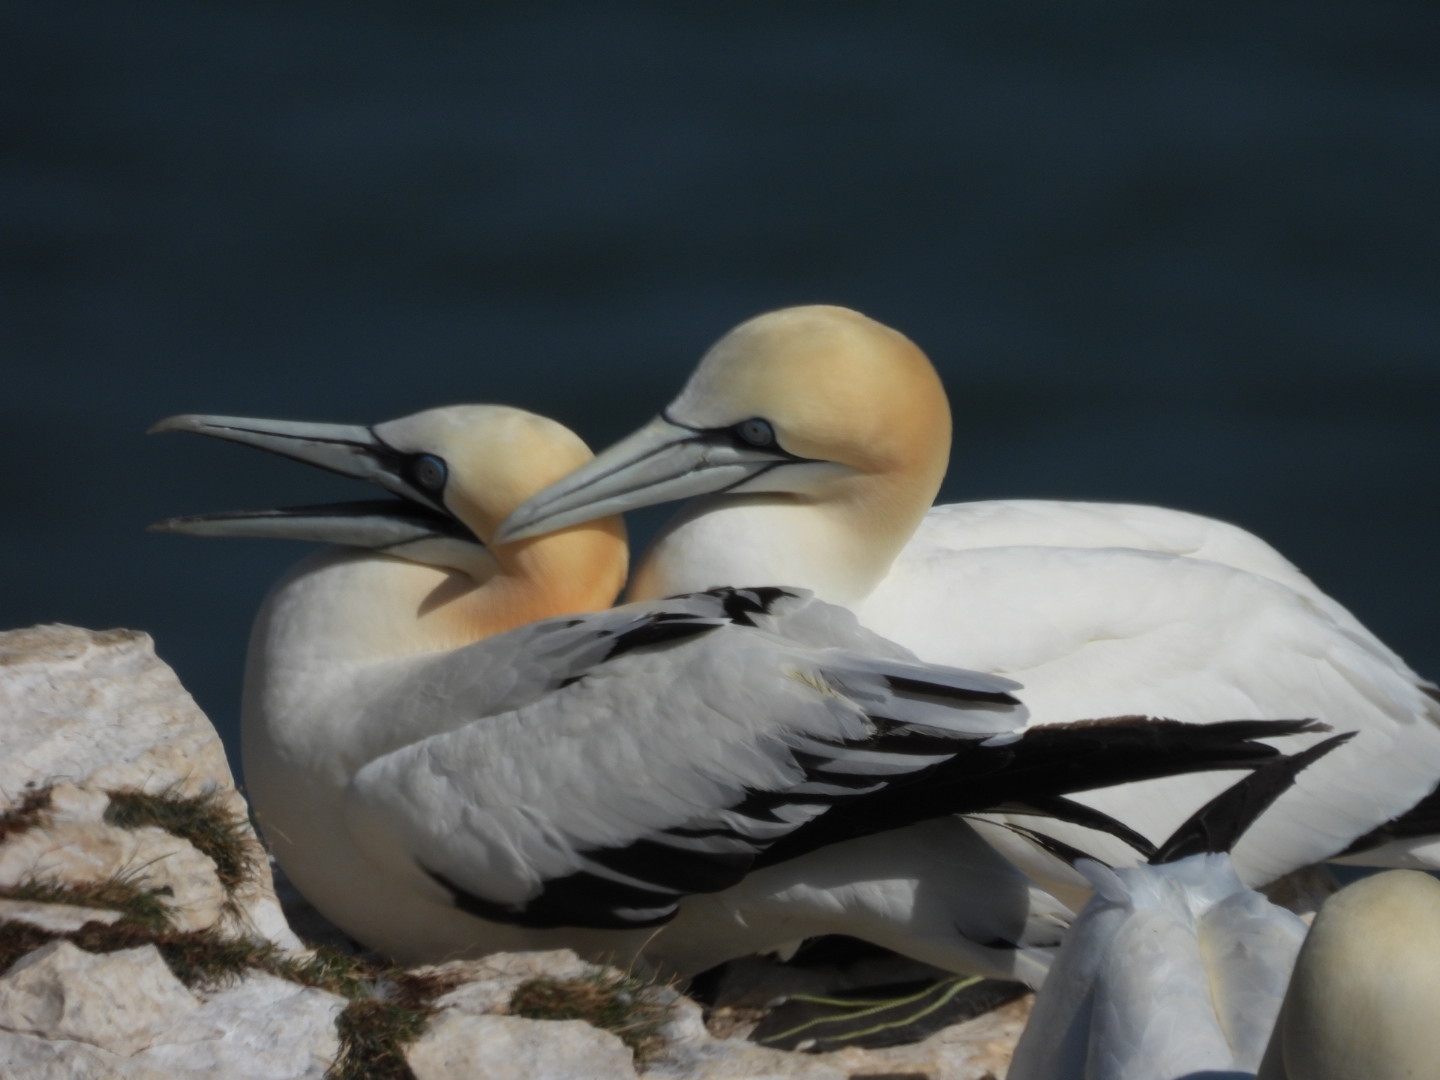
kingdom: Animalia
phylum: Chordata
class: Aves
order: Suliformes
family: Sulidae
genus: Morus
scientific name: Morus bassanus
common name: Northern gannet
